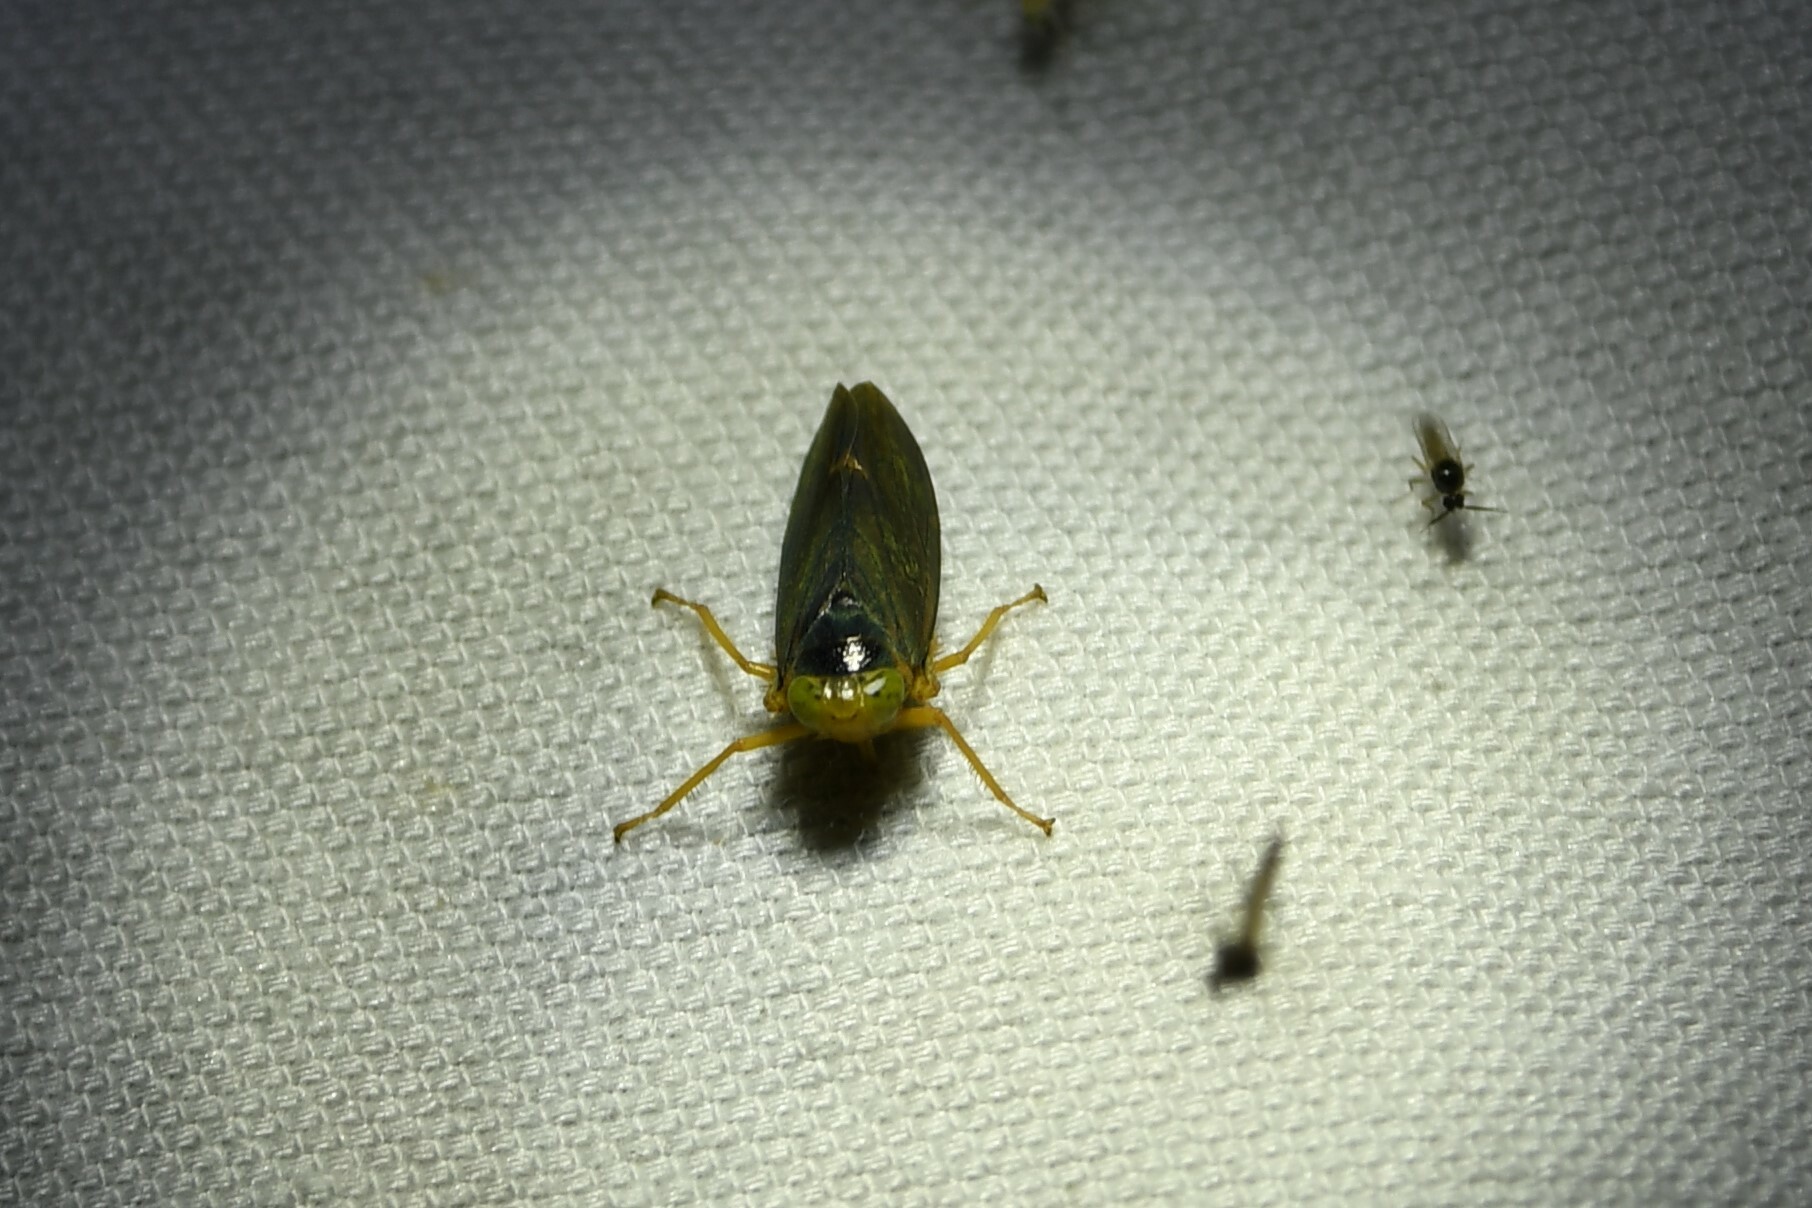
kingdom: Animalia
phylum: Arthropoda
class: Insecta
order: Hemiptera
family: Cicadellidae
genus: Jikradia
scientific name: Jikradia olitoria
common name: Coppery leafhopper
